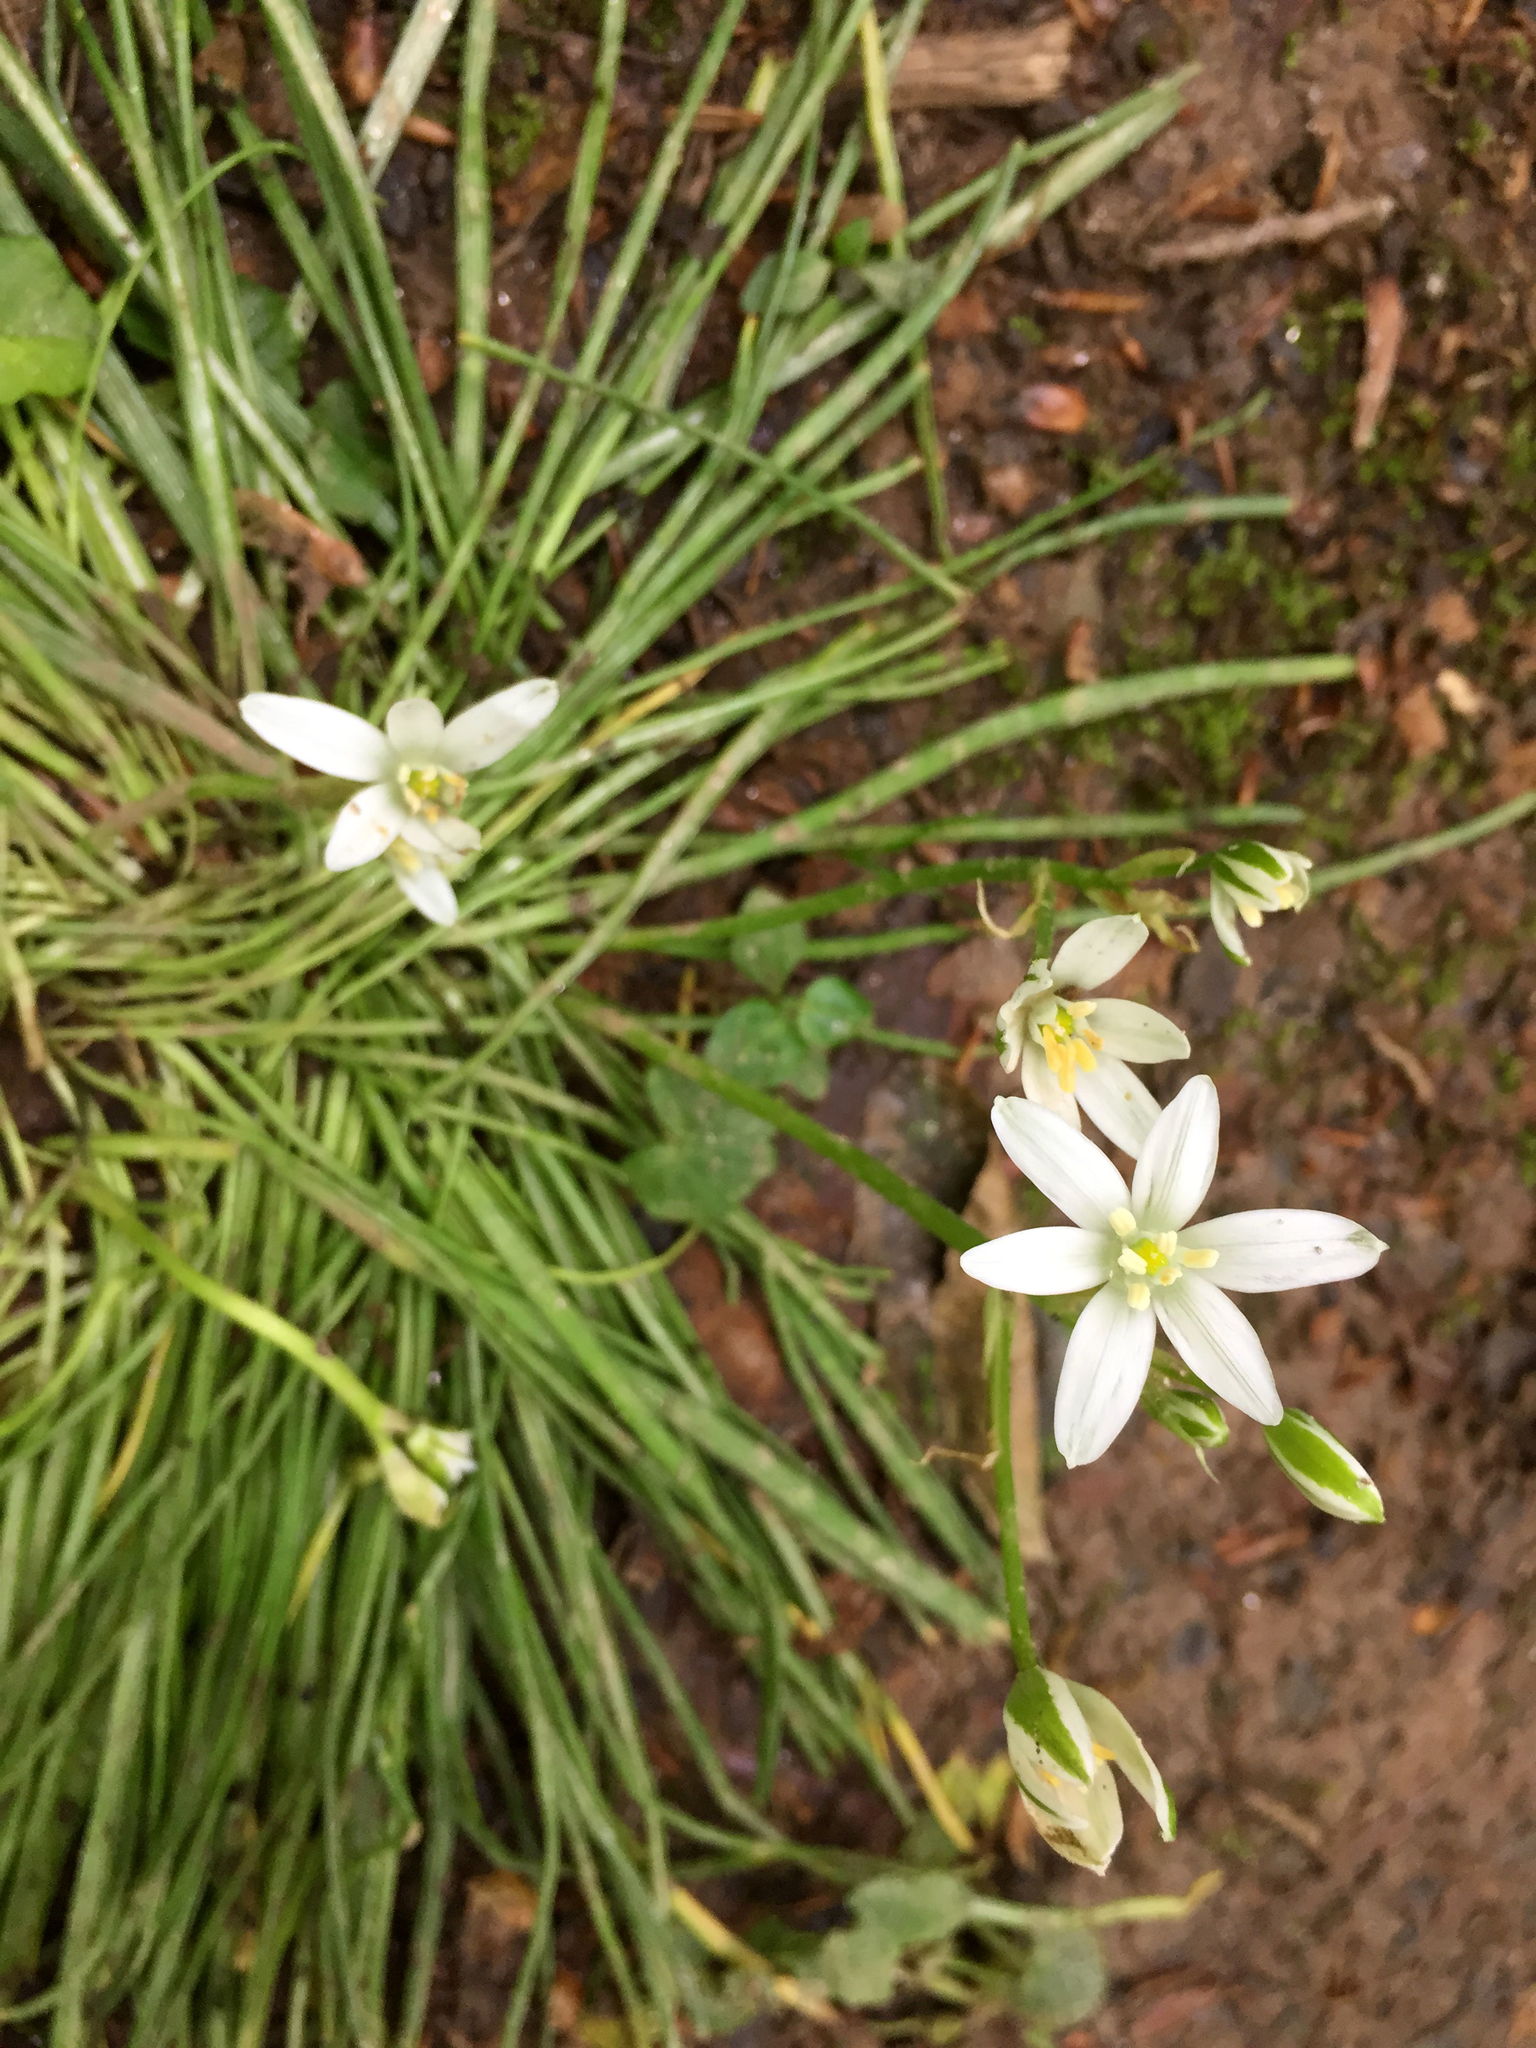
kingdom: Plantae
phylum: Tracheophyta
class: Liliopsida
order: Asparagales
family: Asparagaceae
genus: Ornithogalum
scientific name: Ornithogalum umbellatum
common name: Garden star-of-bethlehem
